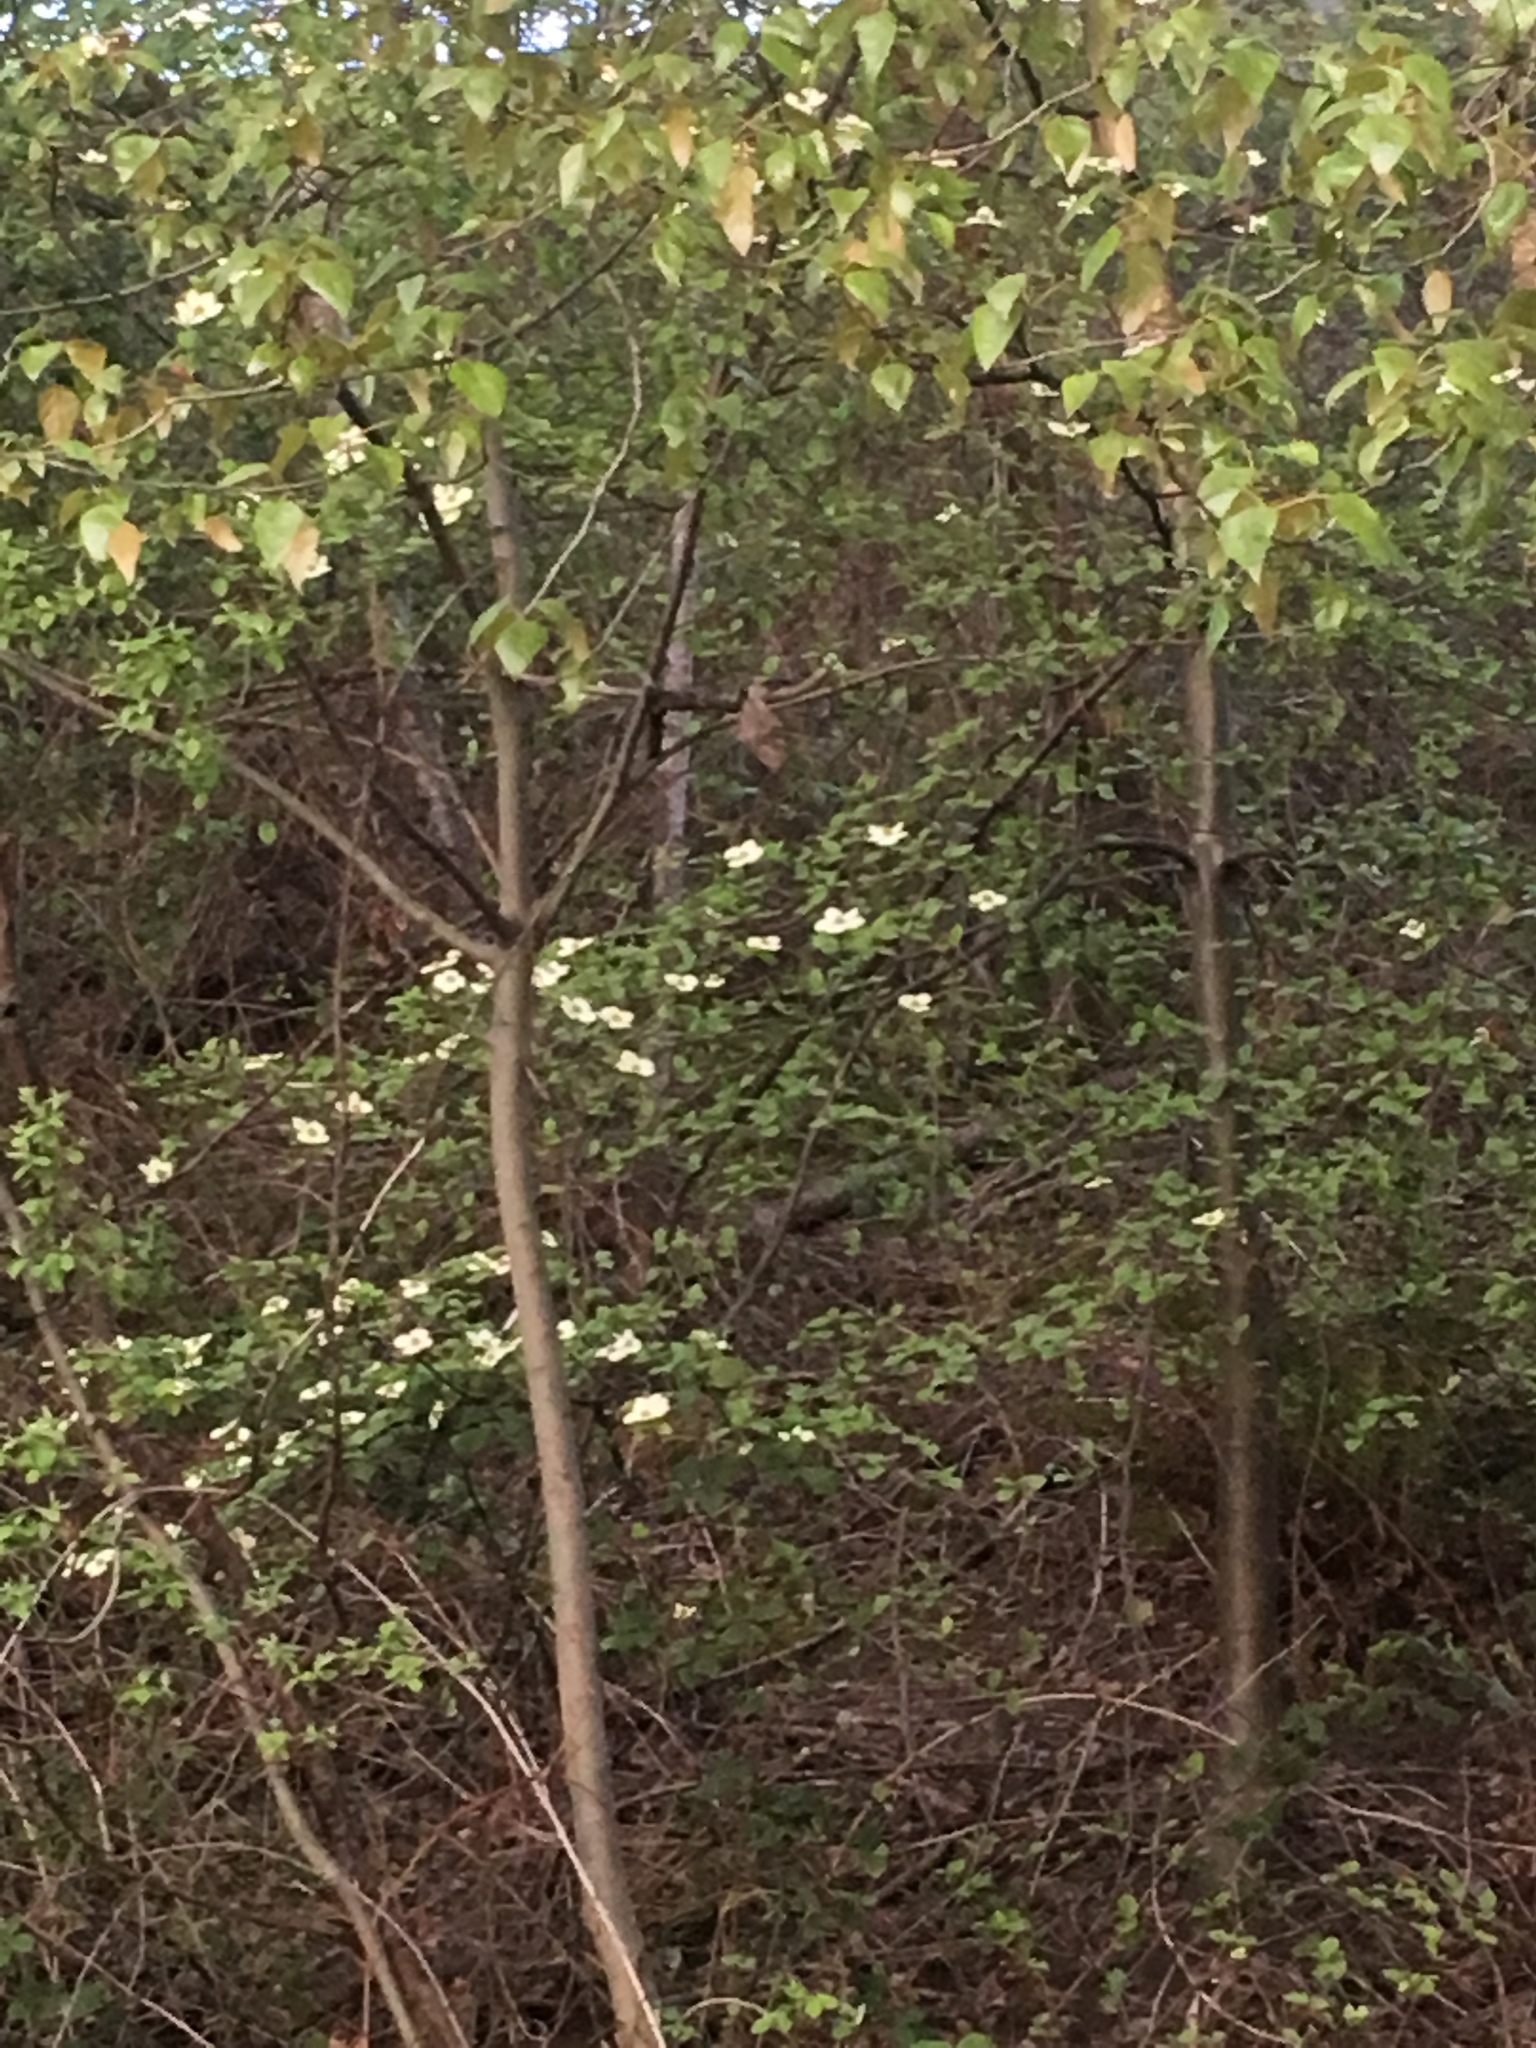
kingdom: Plantae
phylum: Tracheophyta
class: Magnoliopsida
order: Cornales
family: Cornaceae
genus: Cornus
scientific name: Cornus nuttallii
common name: Pacific dogwood
